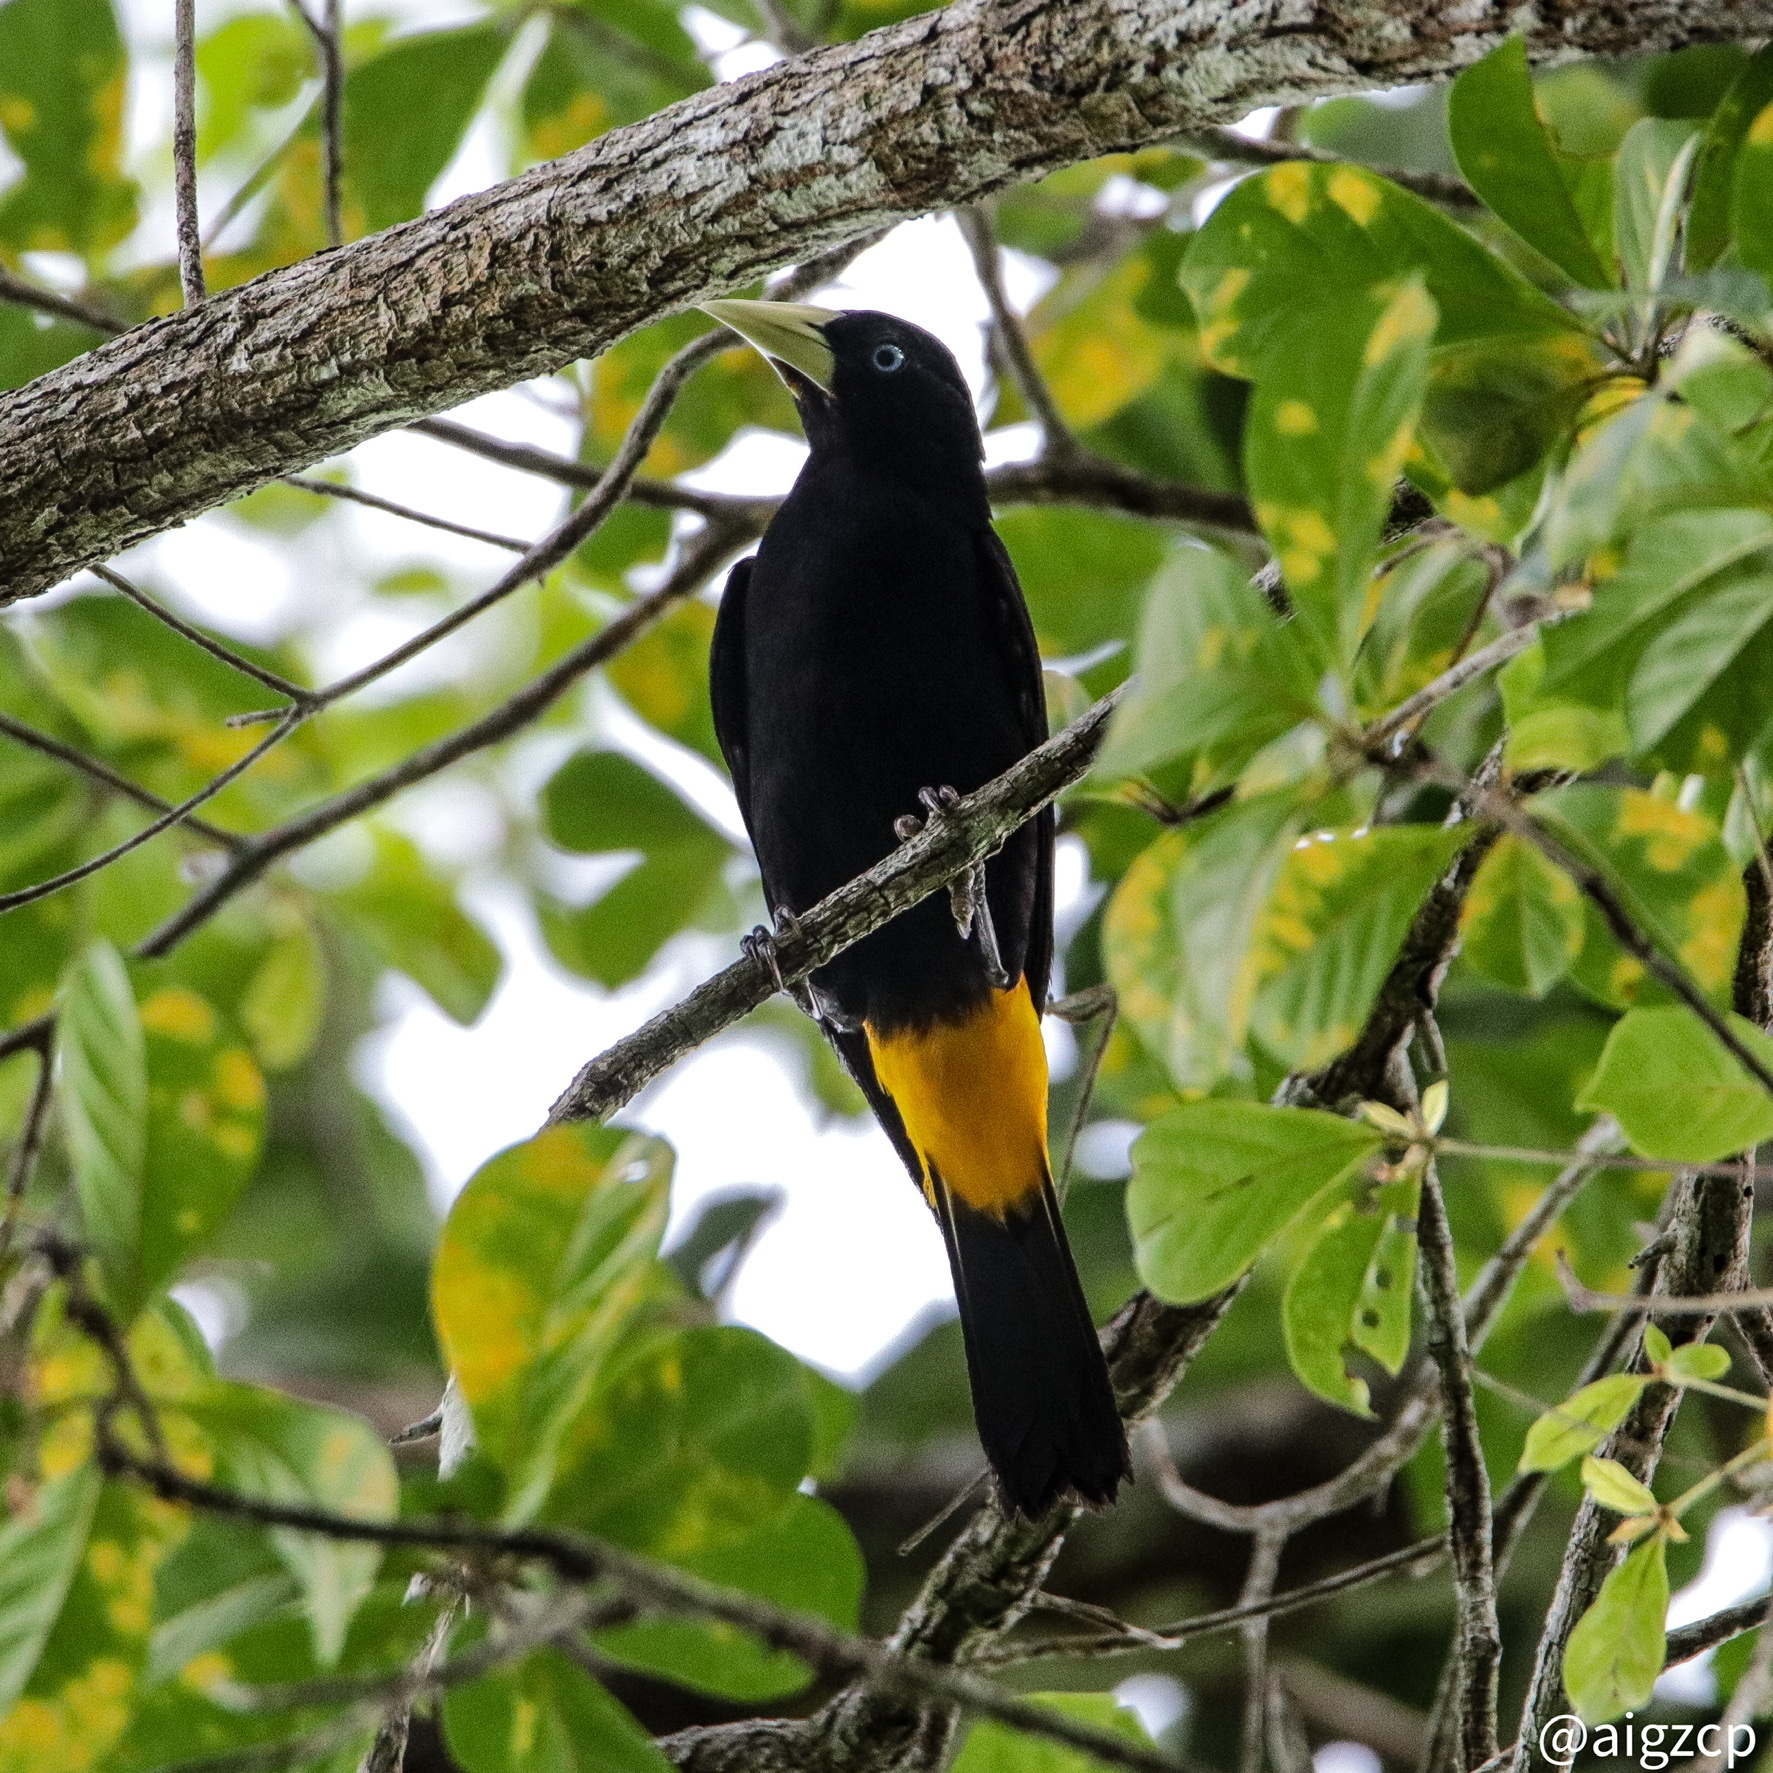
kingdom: Animalia
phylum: Chordata
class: Aves
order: Passeriformes
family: Icteridae
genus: Cacicus
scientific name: Cacicus cela
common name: Yellow-rumped cacique
